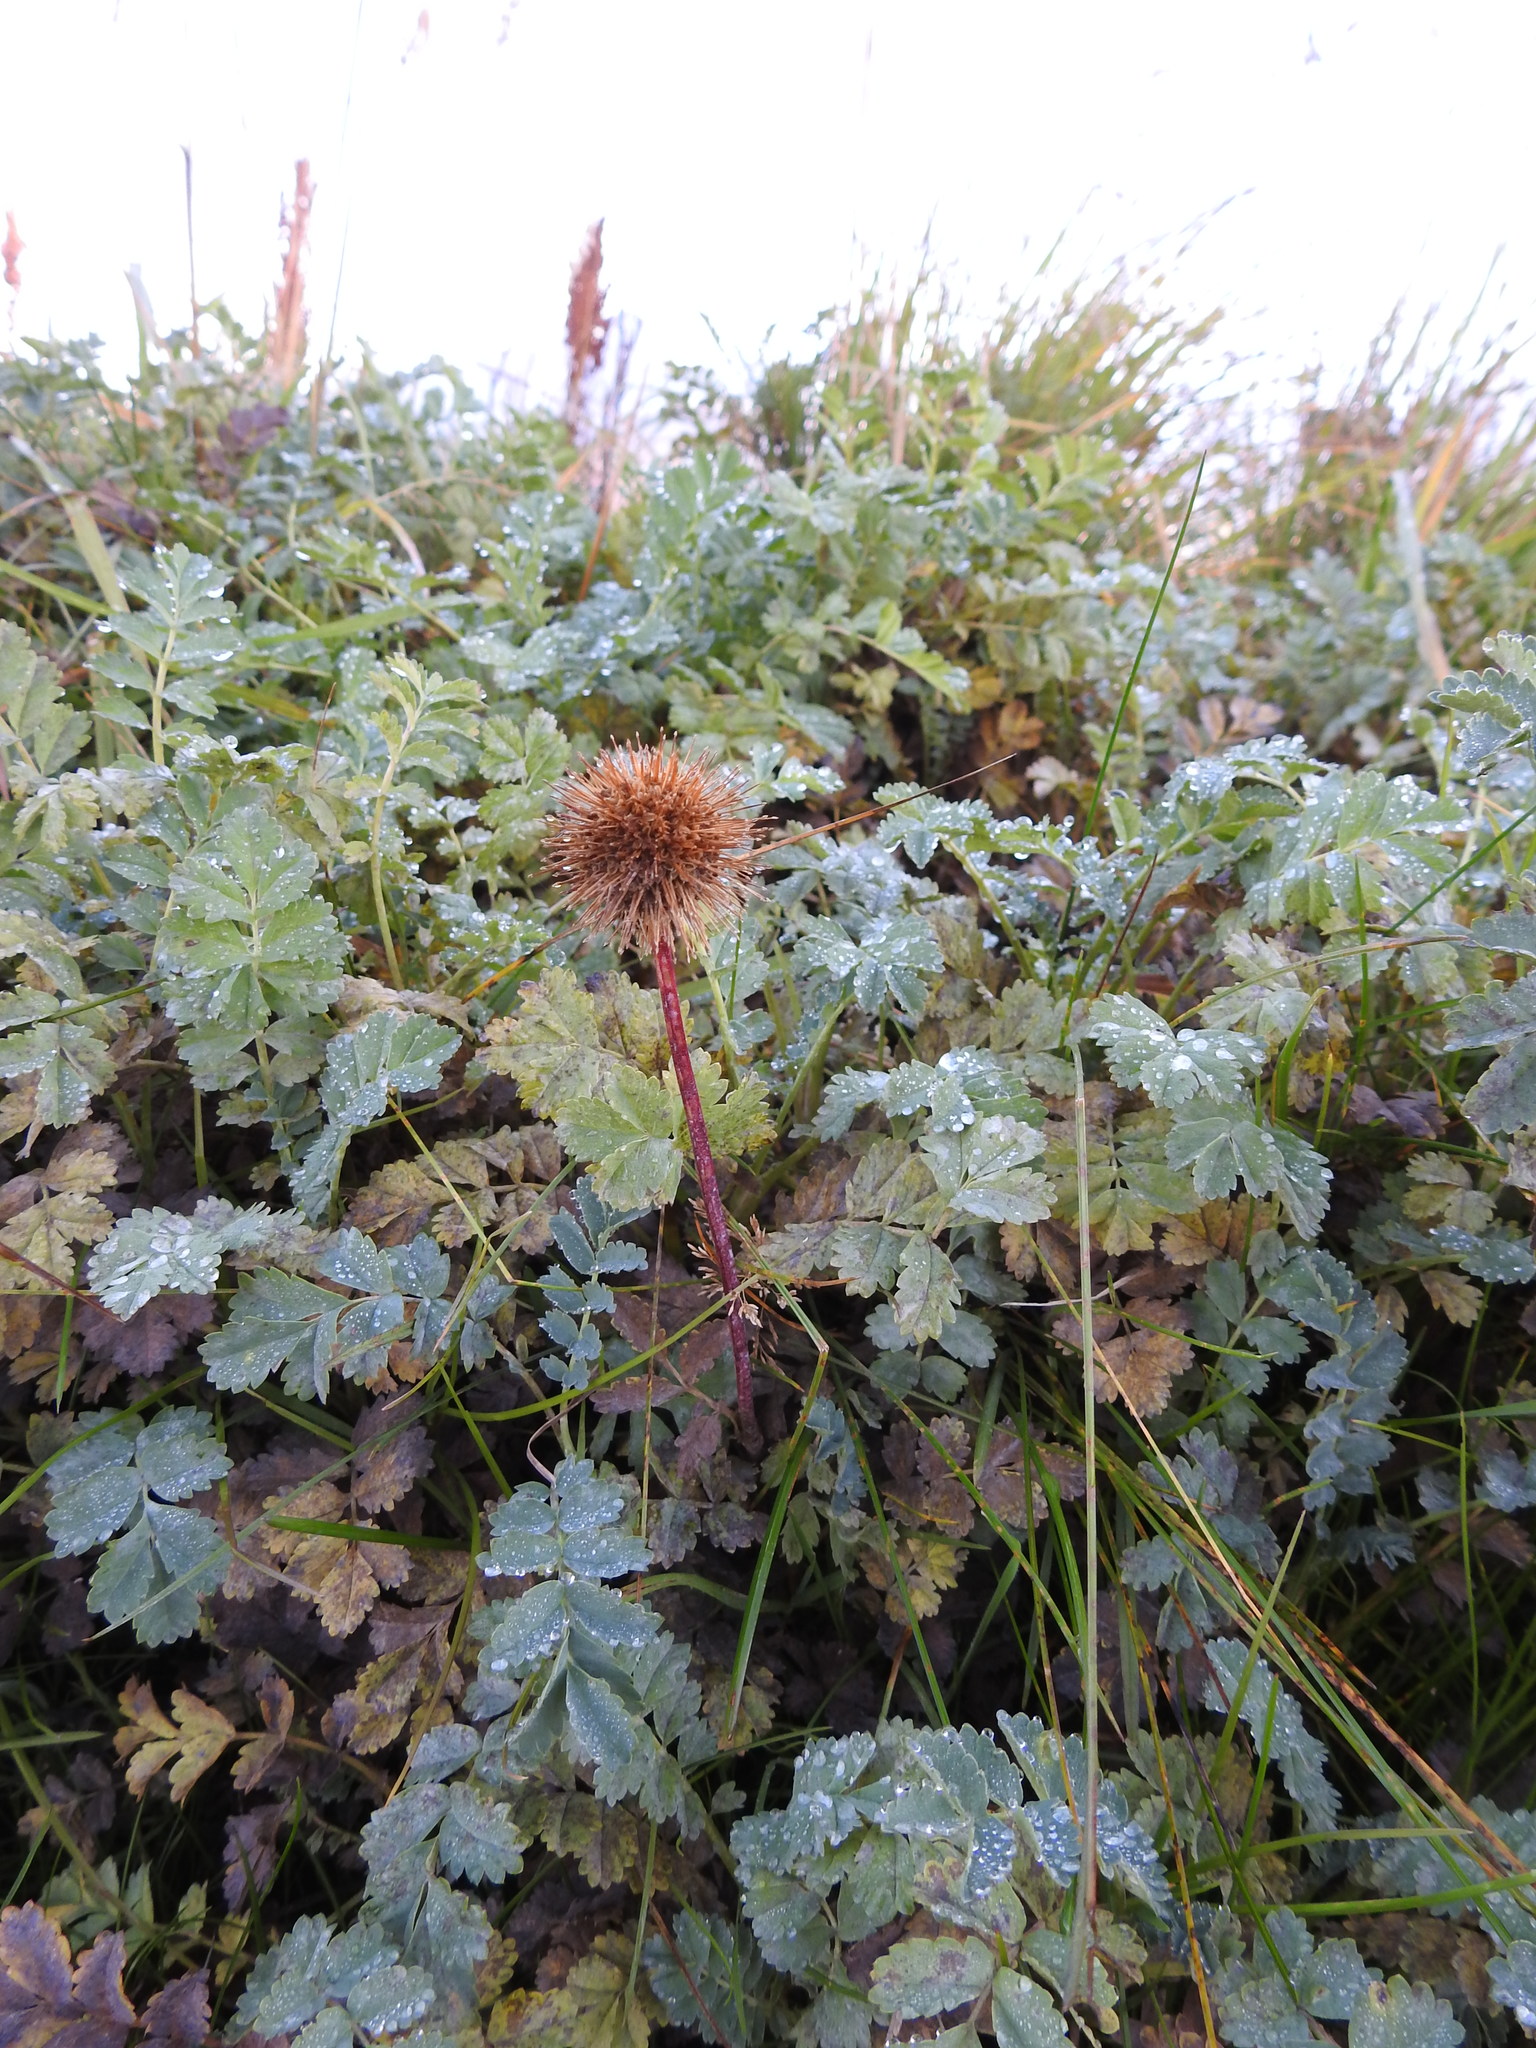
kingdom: Plantae
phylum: Tracheophyta
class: Magnoliopsida
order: Rosales
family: Rosaceae
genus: Acaena
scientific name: Acaena magellanica
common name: New zealand burr
